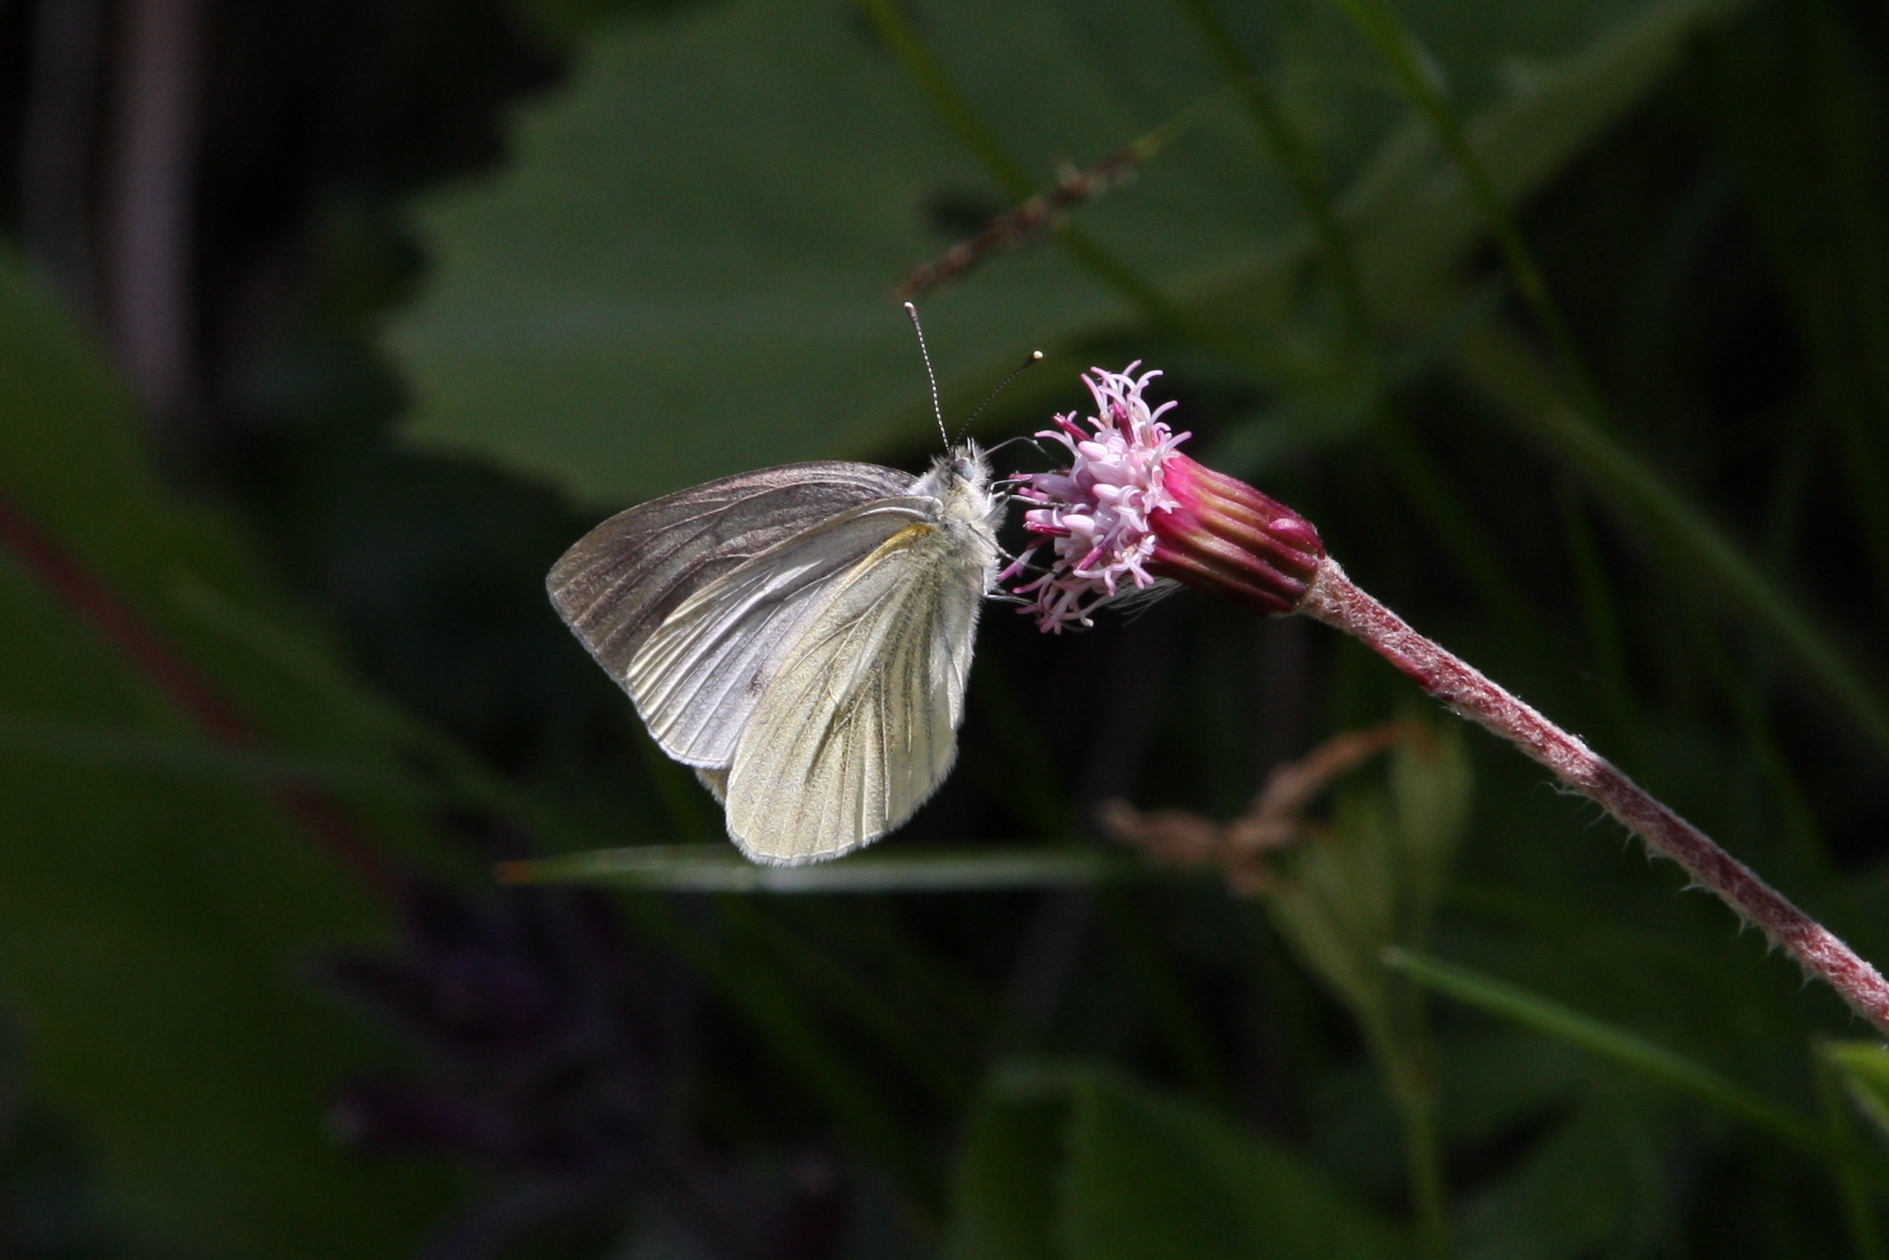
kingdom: Animalia
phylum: Arthropoda
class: Insecta
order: Lepidoptera
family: Pieridae
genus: Pieris
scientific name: Pieris bryoniae
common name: Mountain green-veined white
